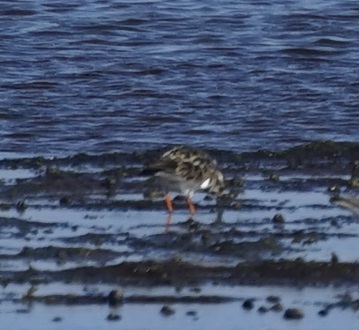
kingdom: Animalia
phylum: Chordata
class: Aves
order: Charadriiformes
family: Scolopacidae
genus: Arenaria
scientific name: Arenaria interpres
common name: Ruddy turnstone
